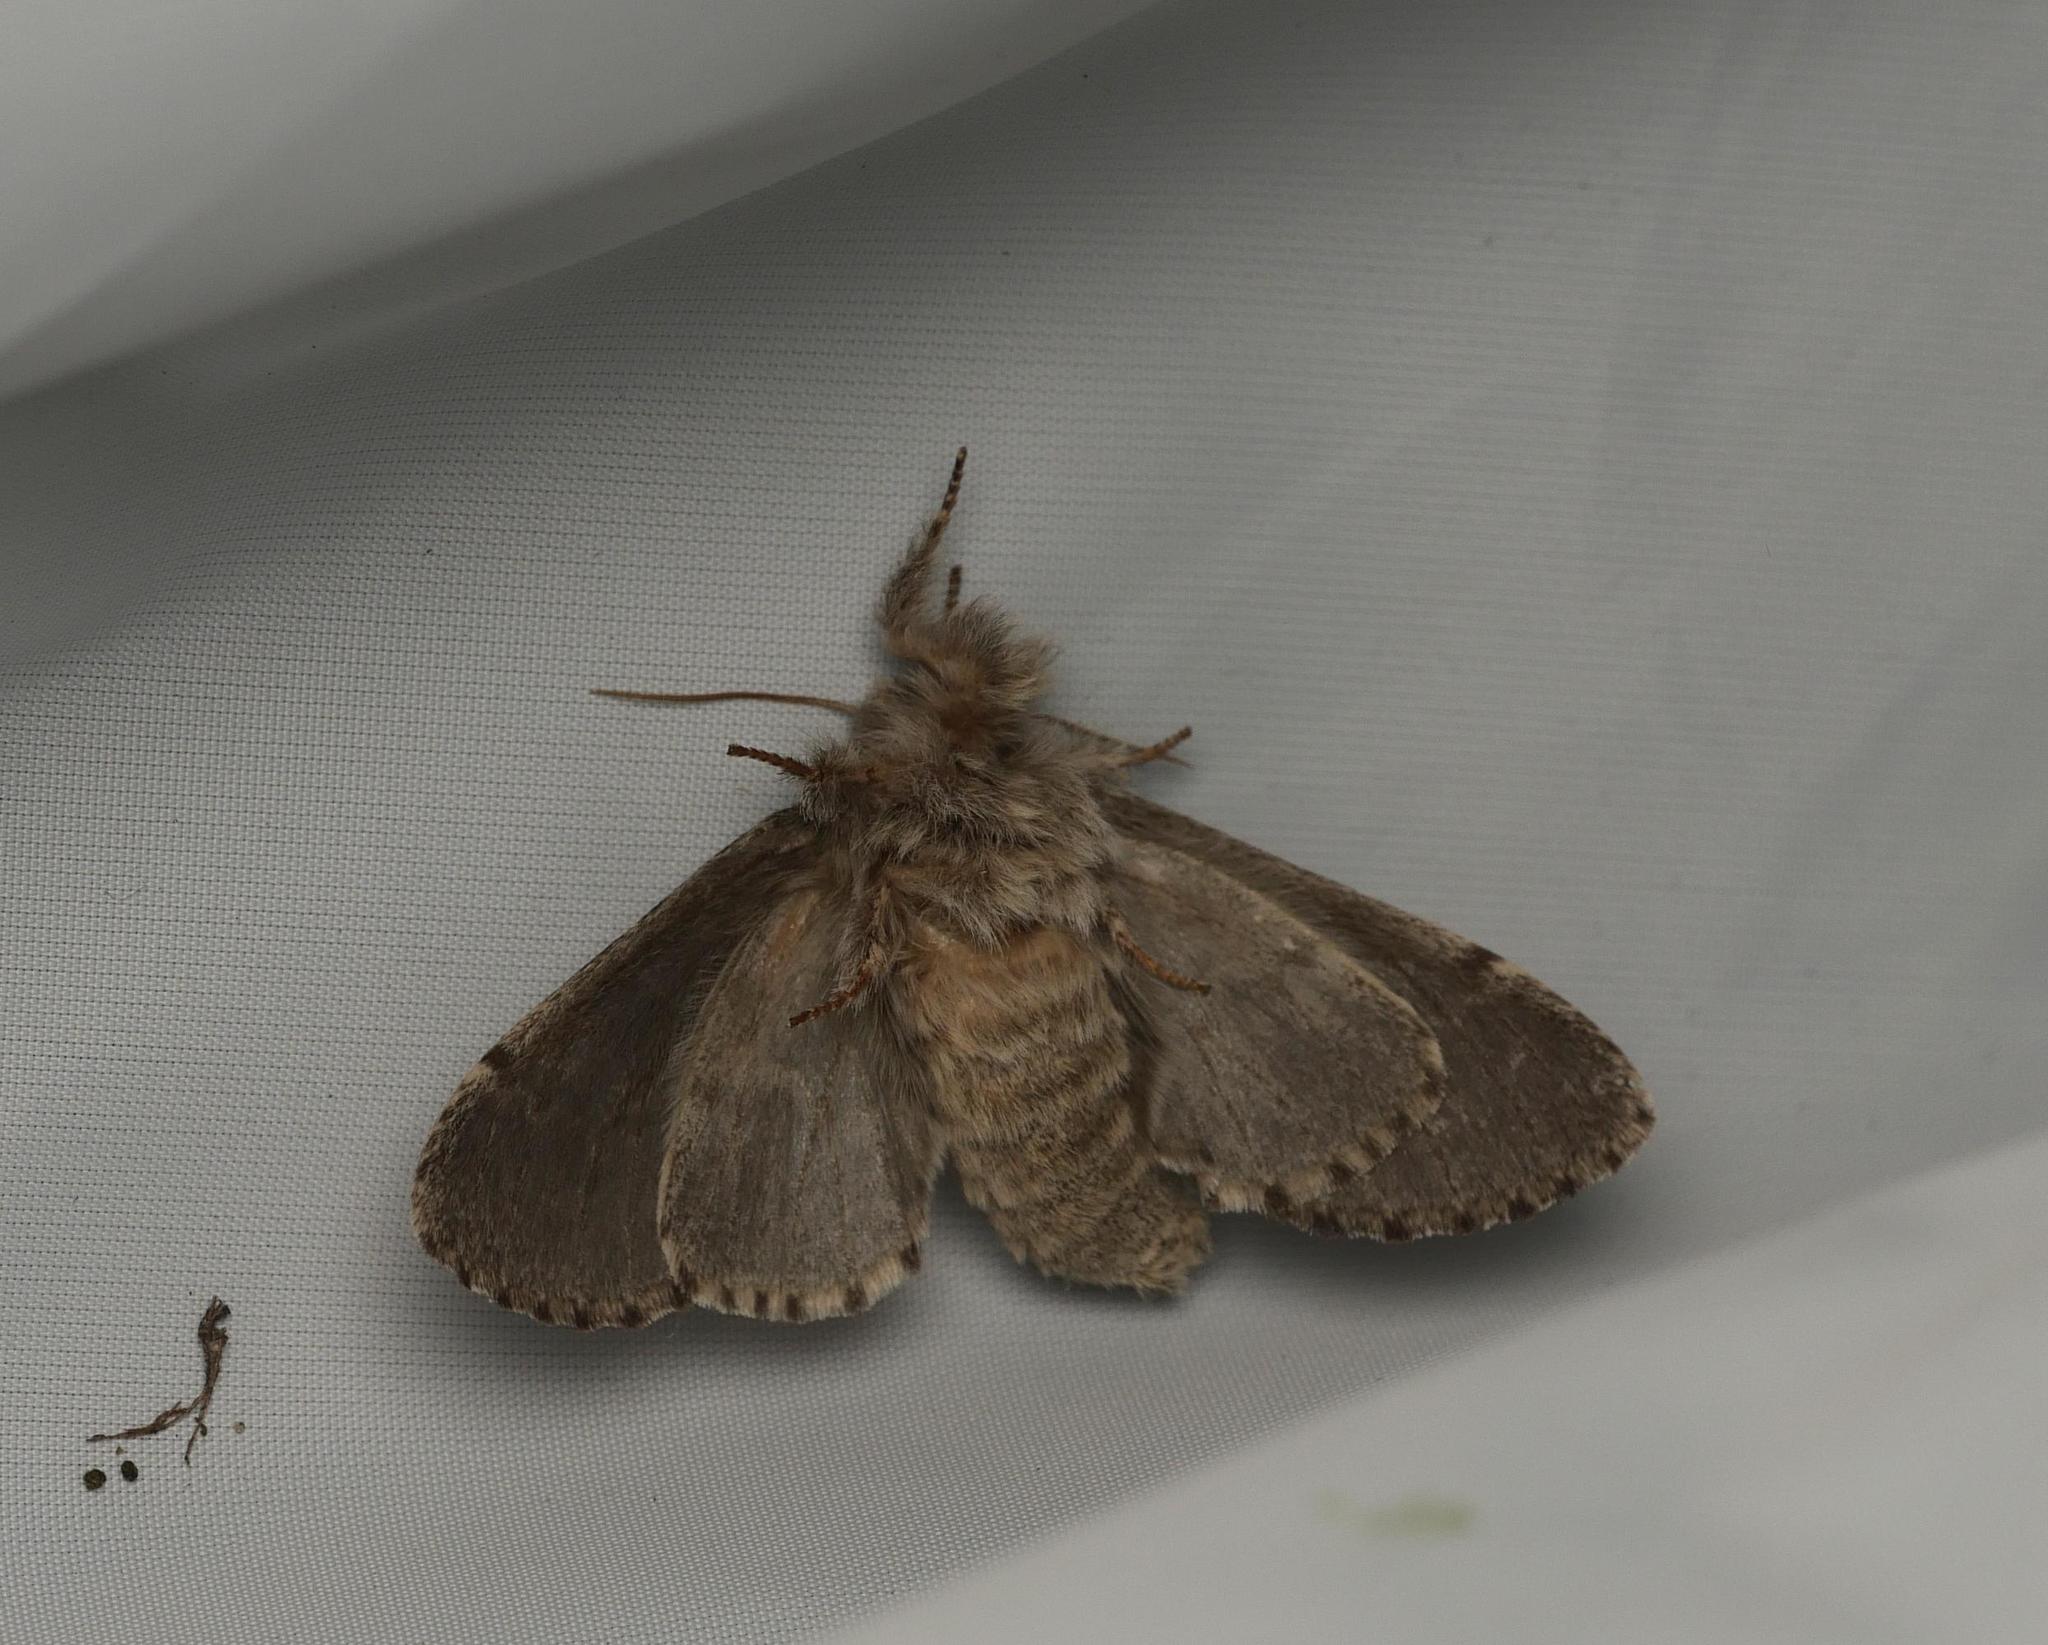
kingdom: Animalia
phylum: Arthropoda
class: Insecta
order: Lepidoptera
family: Notodontidae
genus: Drymonia
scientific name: Drymonia ruficornis
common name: Lunar marbled brown
